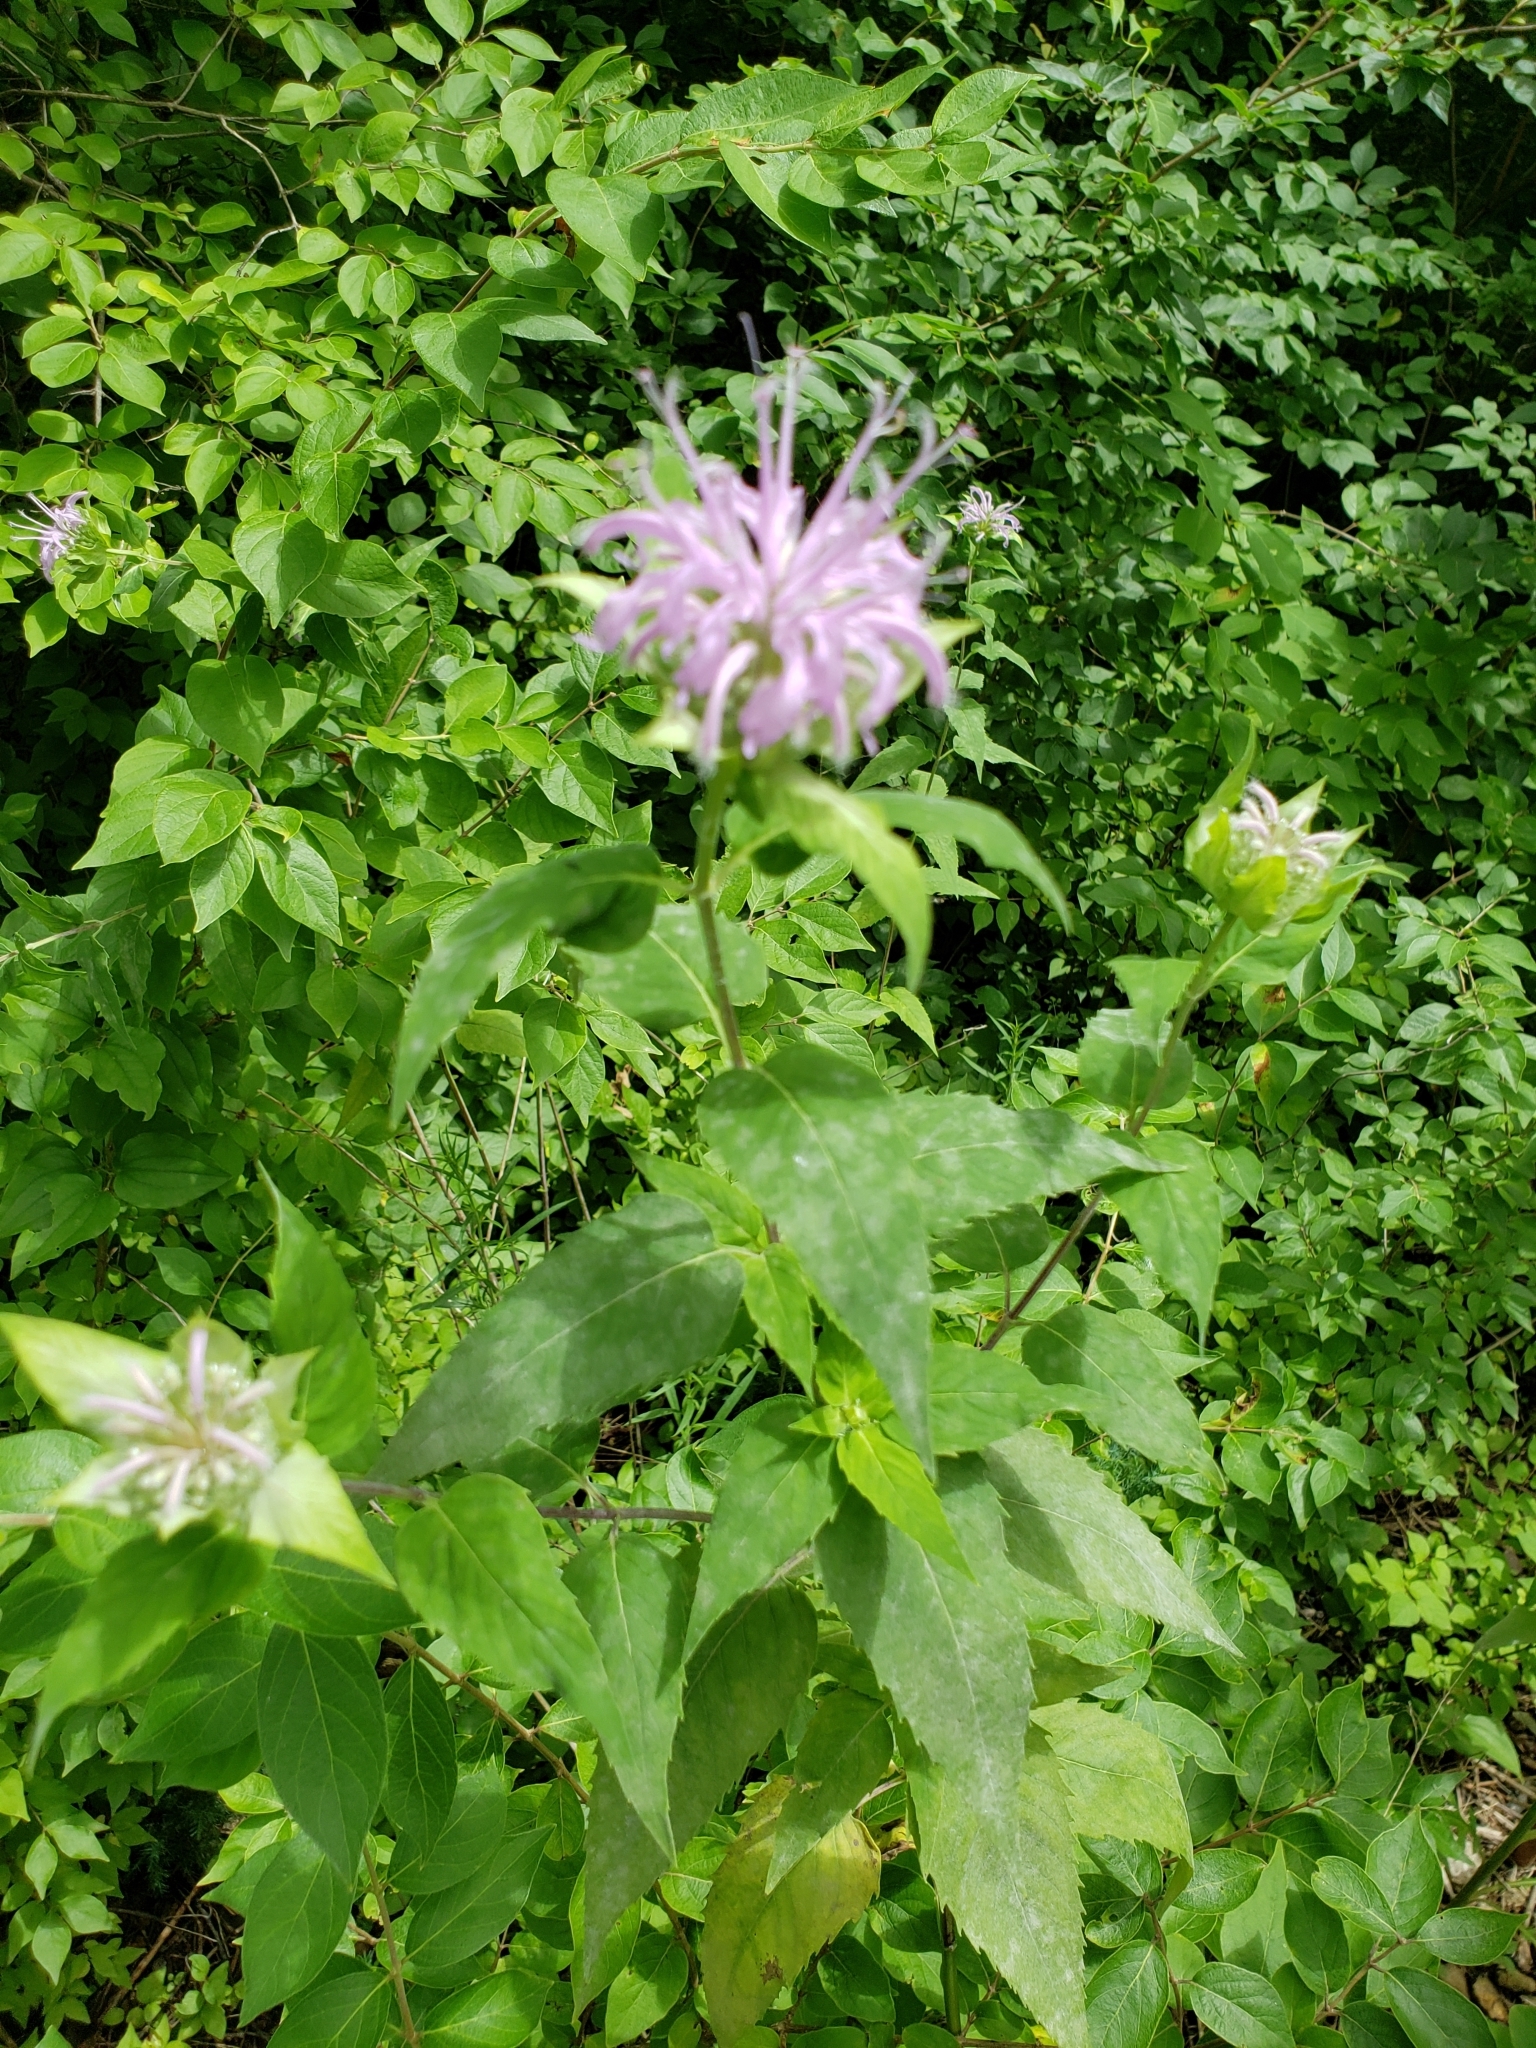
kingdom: Plantae
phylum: Tracheophyta
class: Magnoliopsida
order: Lamiales
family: Lamiaceae
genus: Monarda
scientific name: Monarda fistulosa
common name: Purple beebalm
